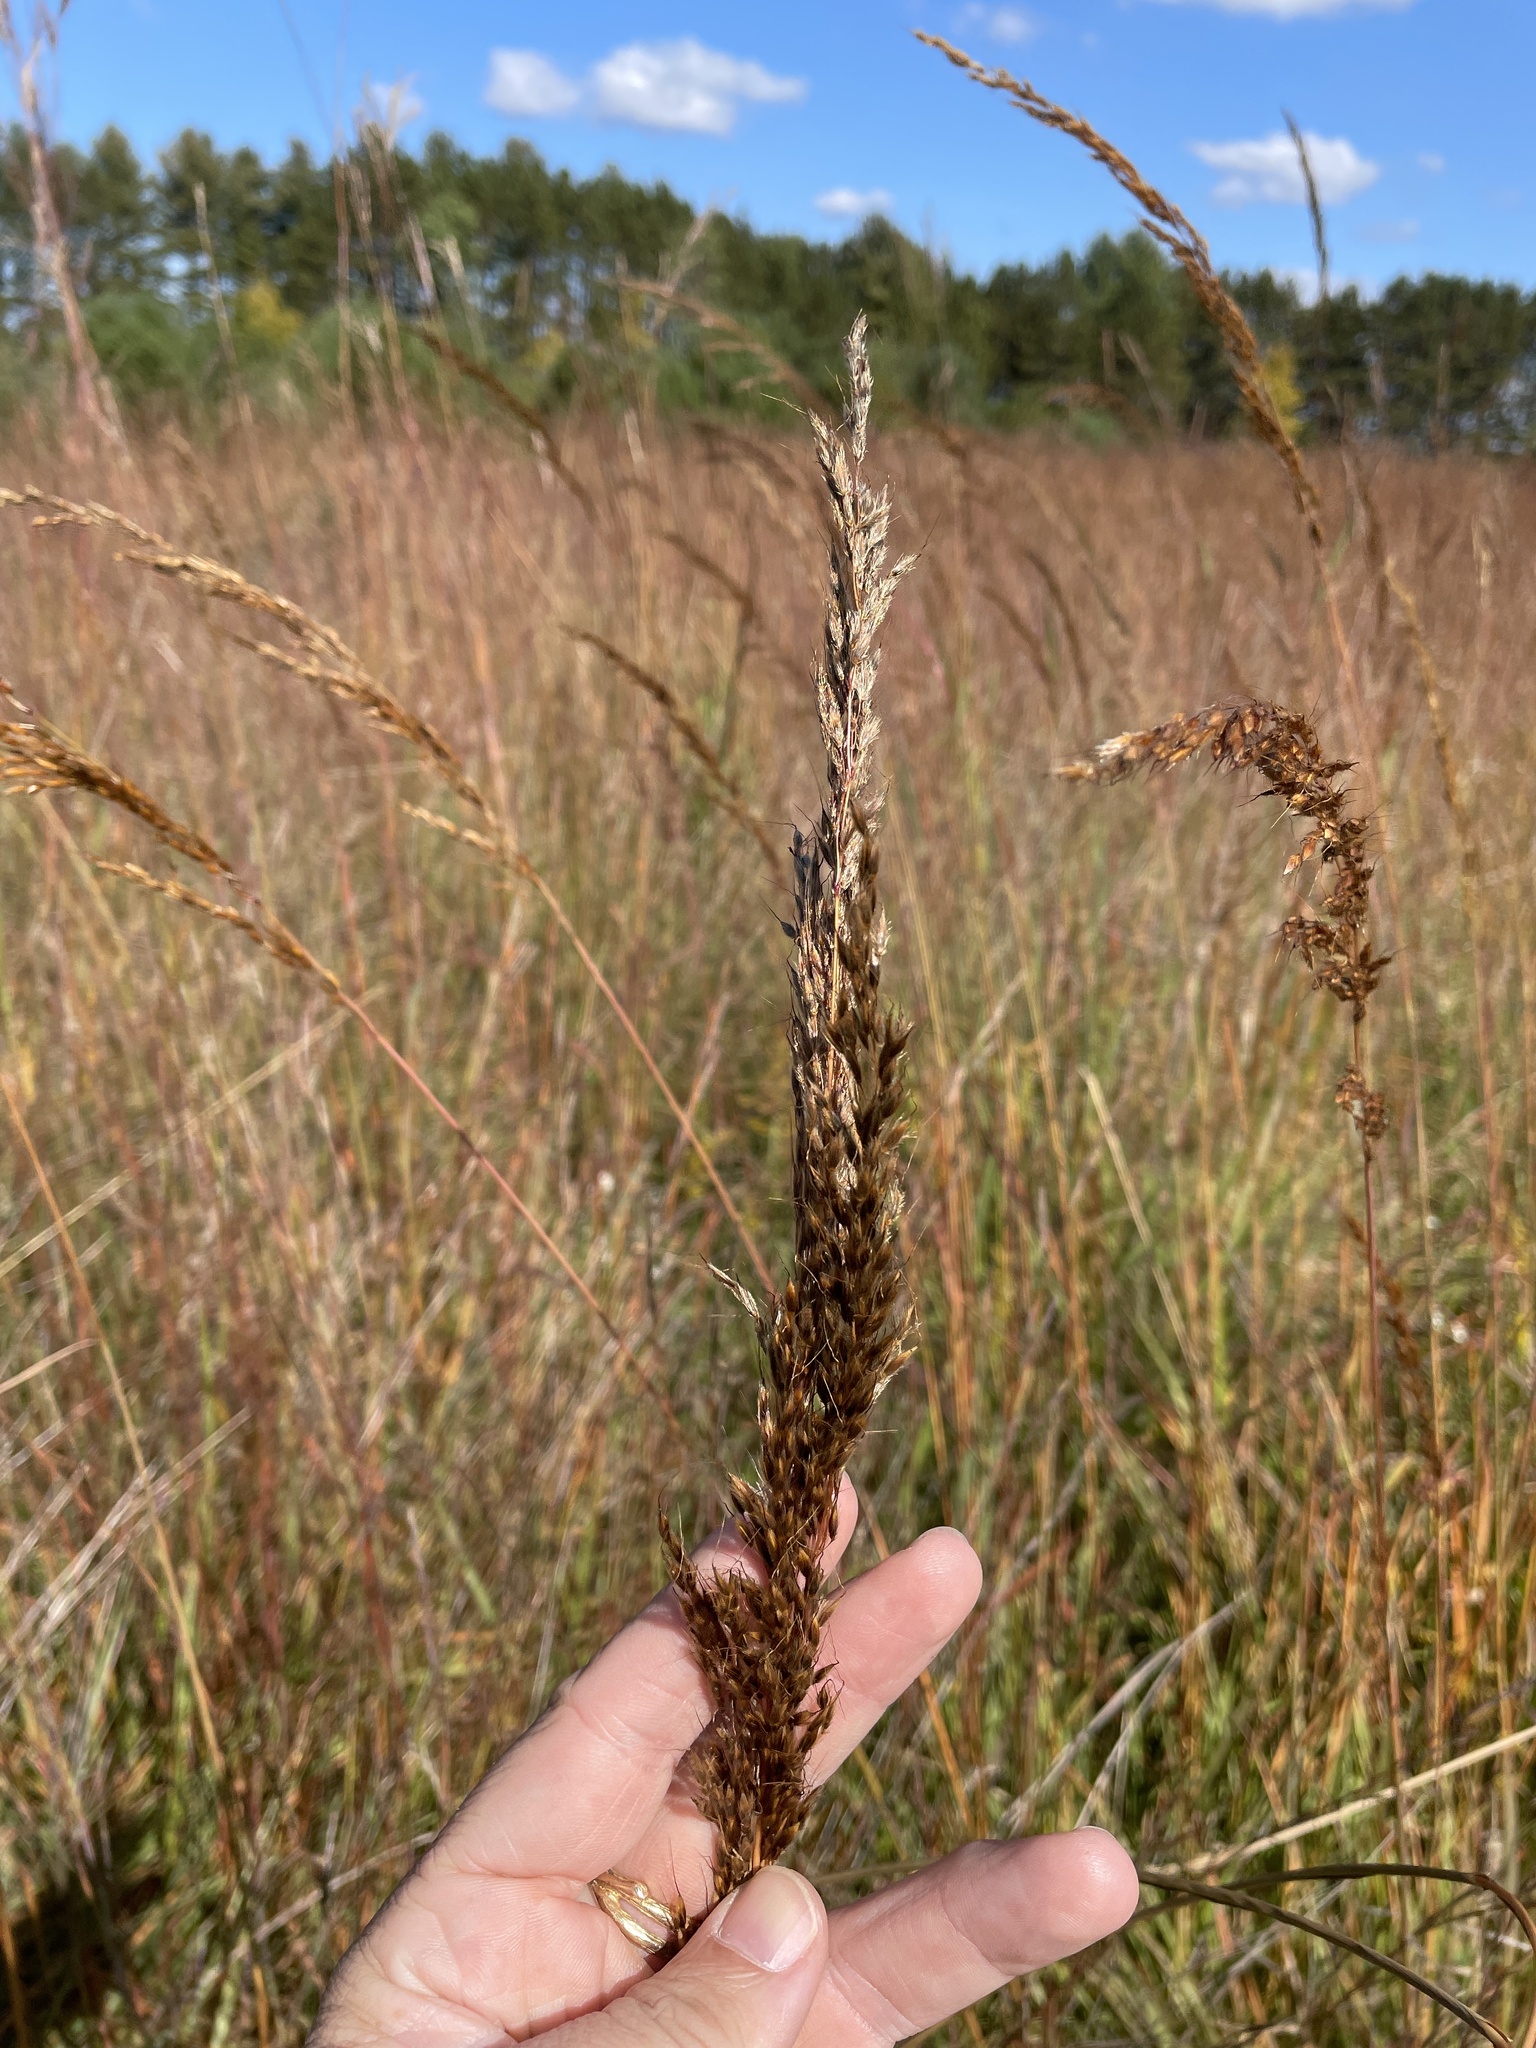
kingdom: Plantae
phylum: Tracheophyta
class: Liliopsida
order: Poales
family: Poaceae
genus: Sorghastrum
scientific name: Sorghastrum nutans
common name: Indian grass
